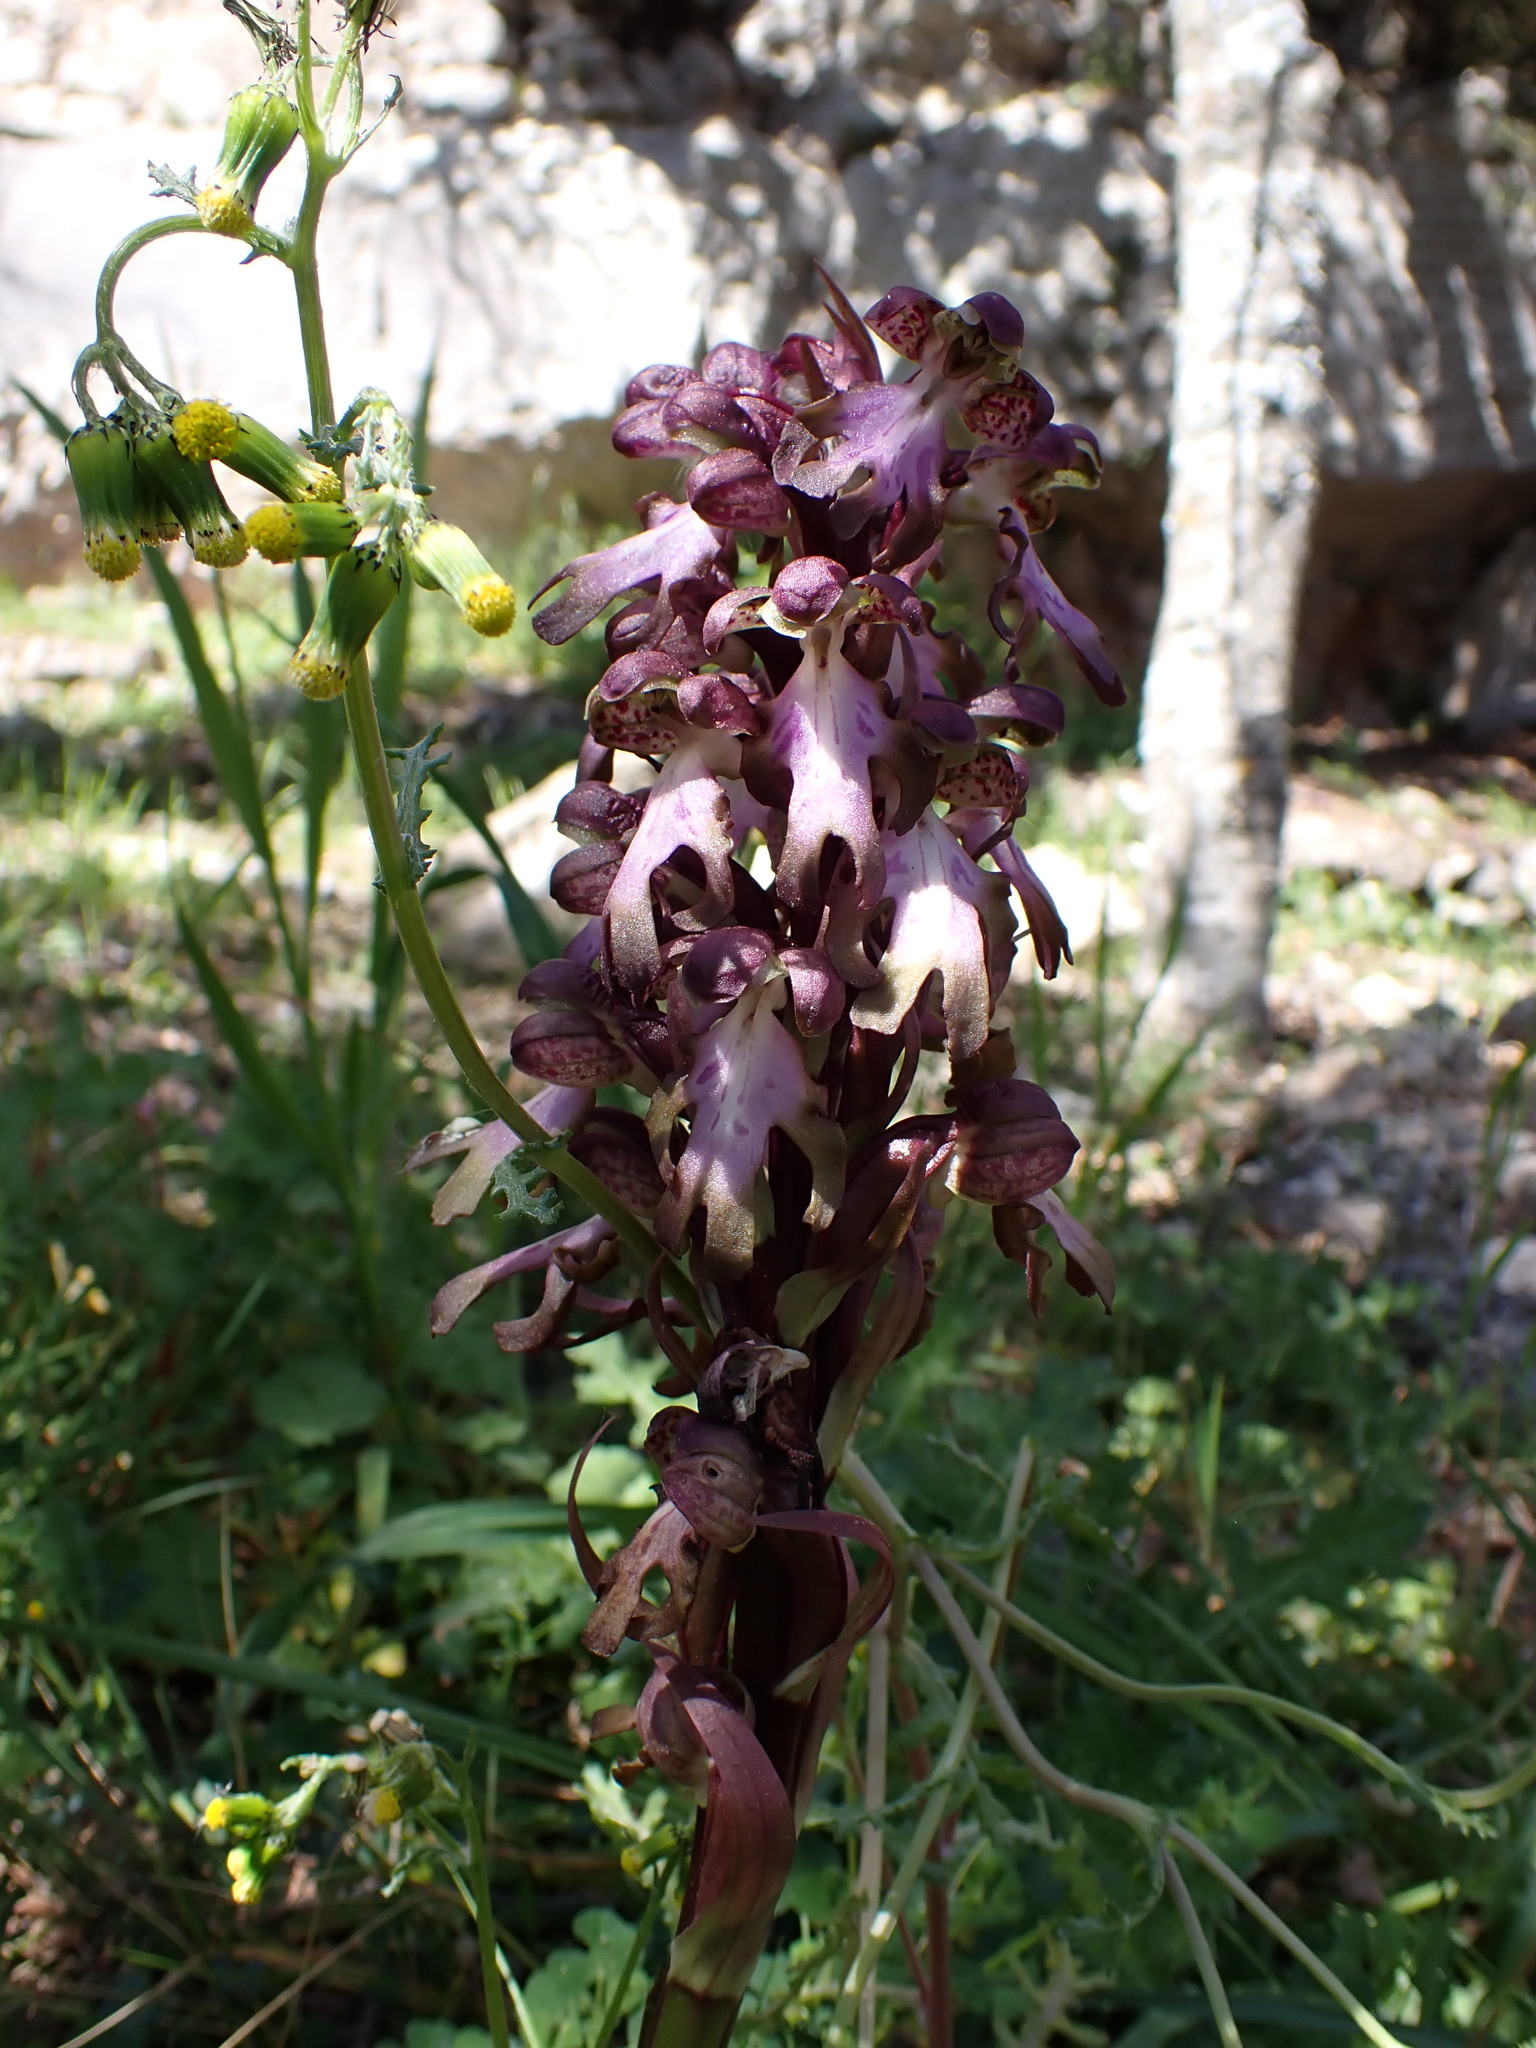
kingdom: Plantae
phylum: Tracheophyta
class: Liliopsida
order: Asparagales
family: Orchidaceae
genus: Himantoglossum
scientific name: Himantoglossum robertianum
